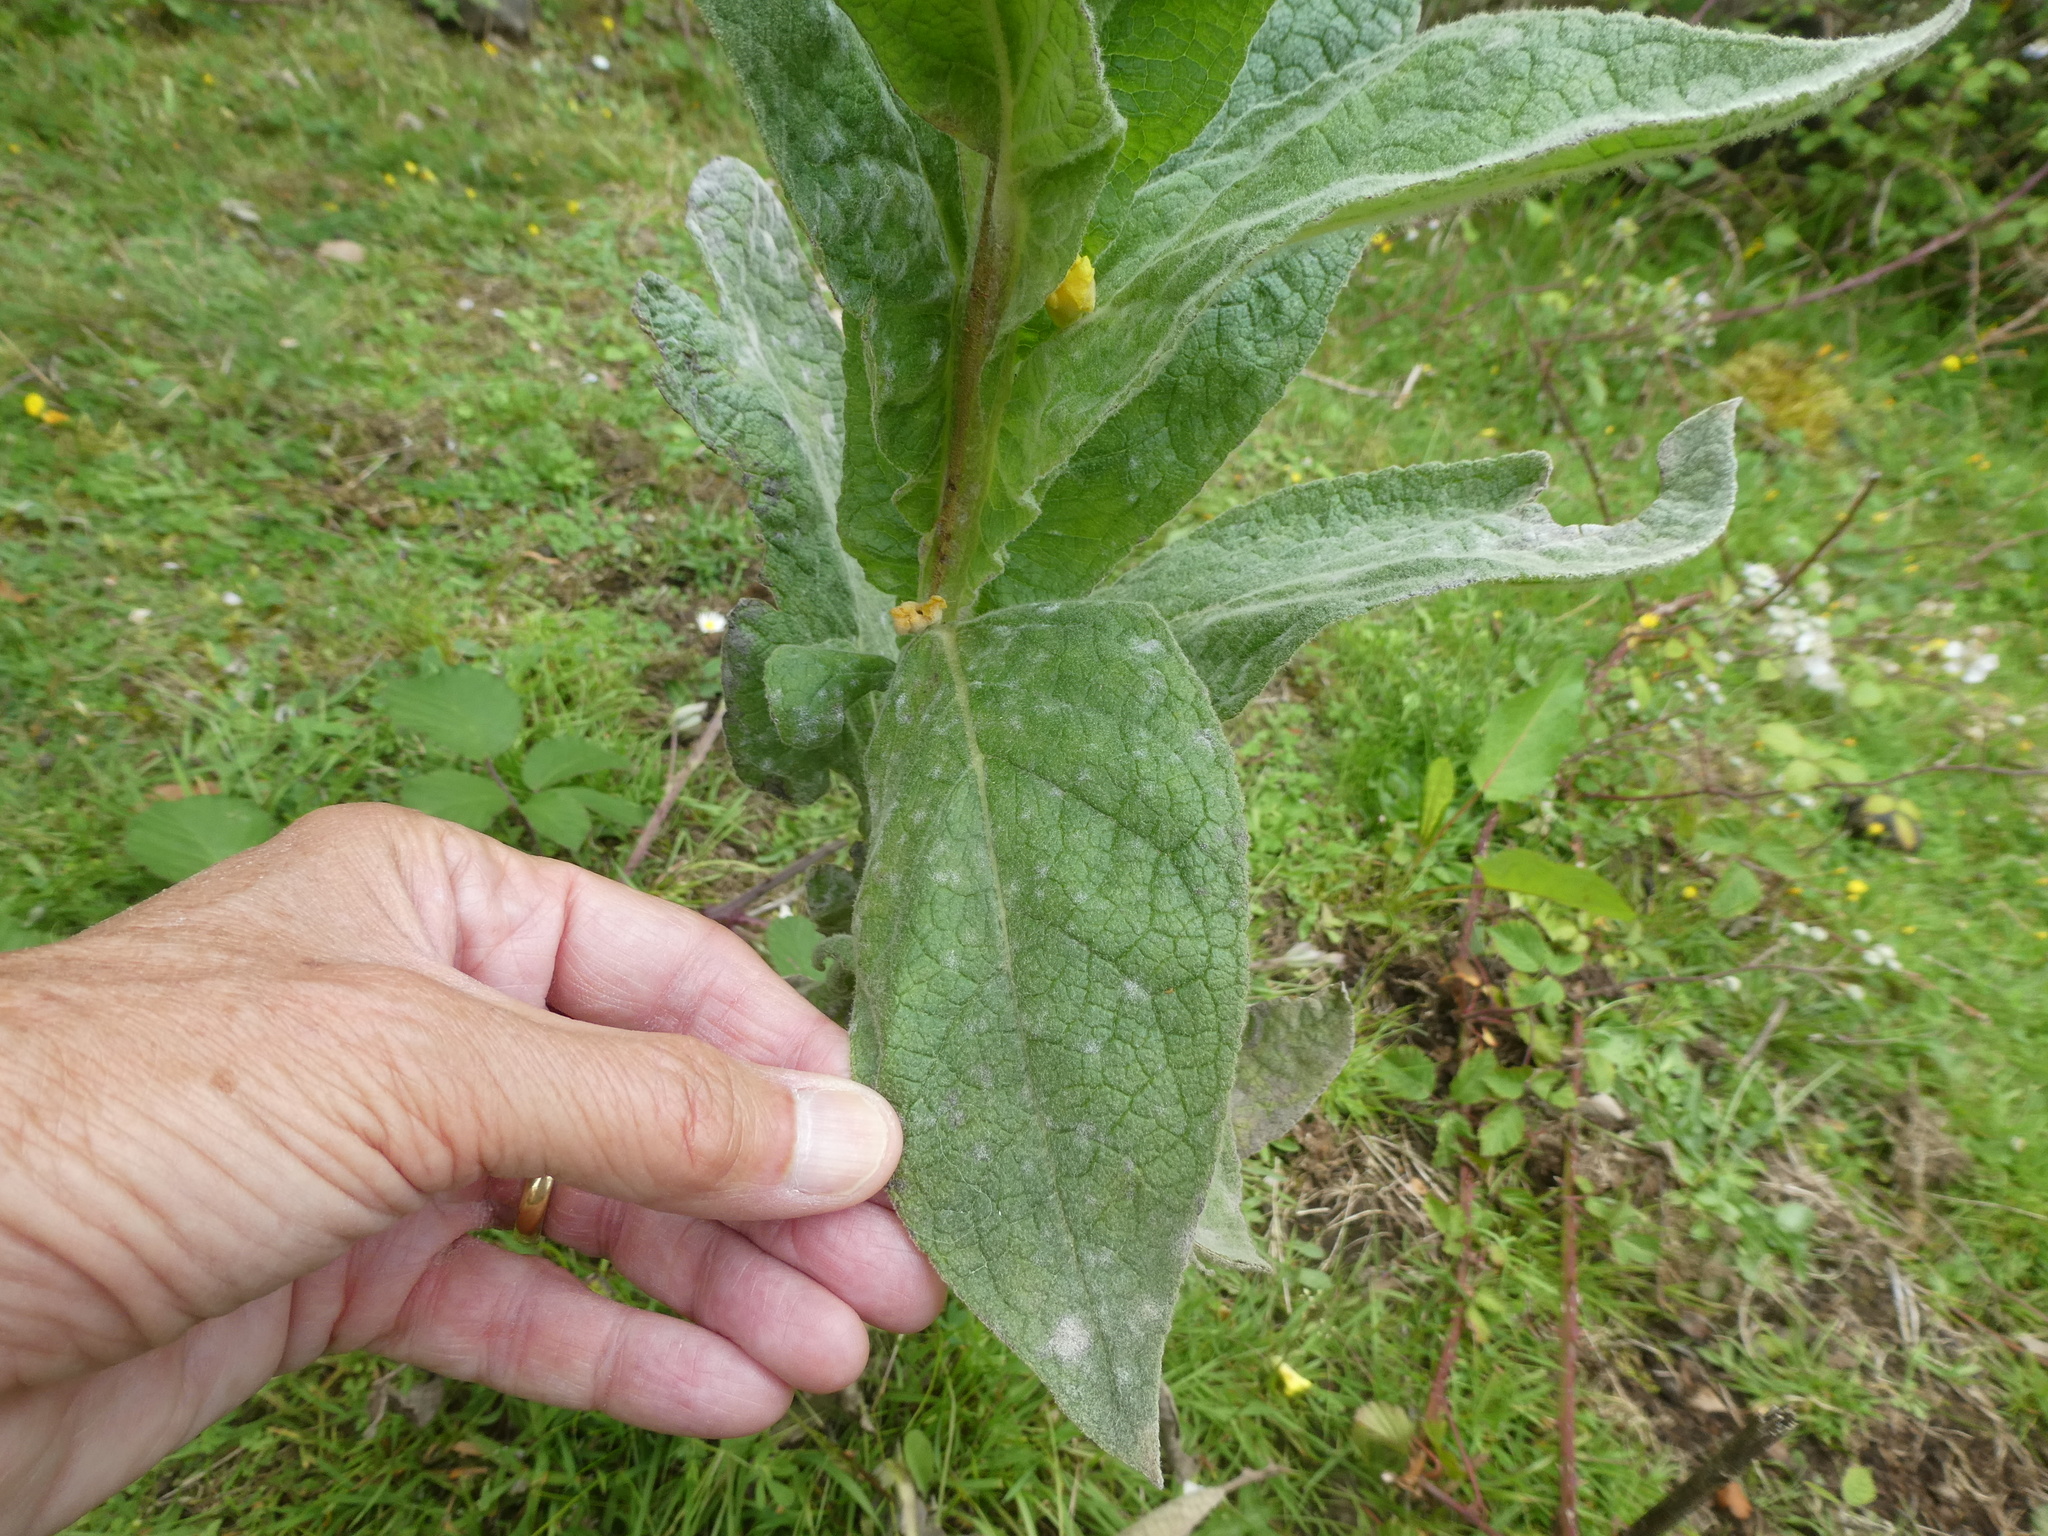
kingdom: Plantae
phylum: Tracheophyta
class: Magnoliopsida
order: Lamiales
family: Scrophulariaceae
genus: Verbascum
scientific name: Verbascum thapsus
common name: Common mullein
